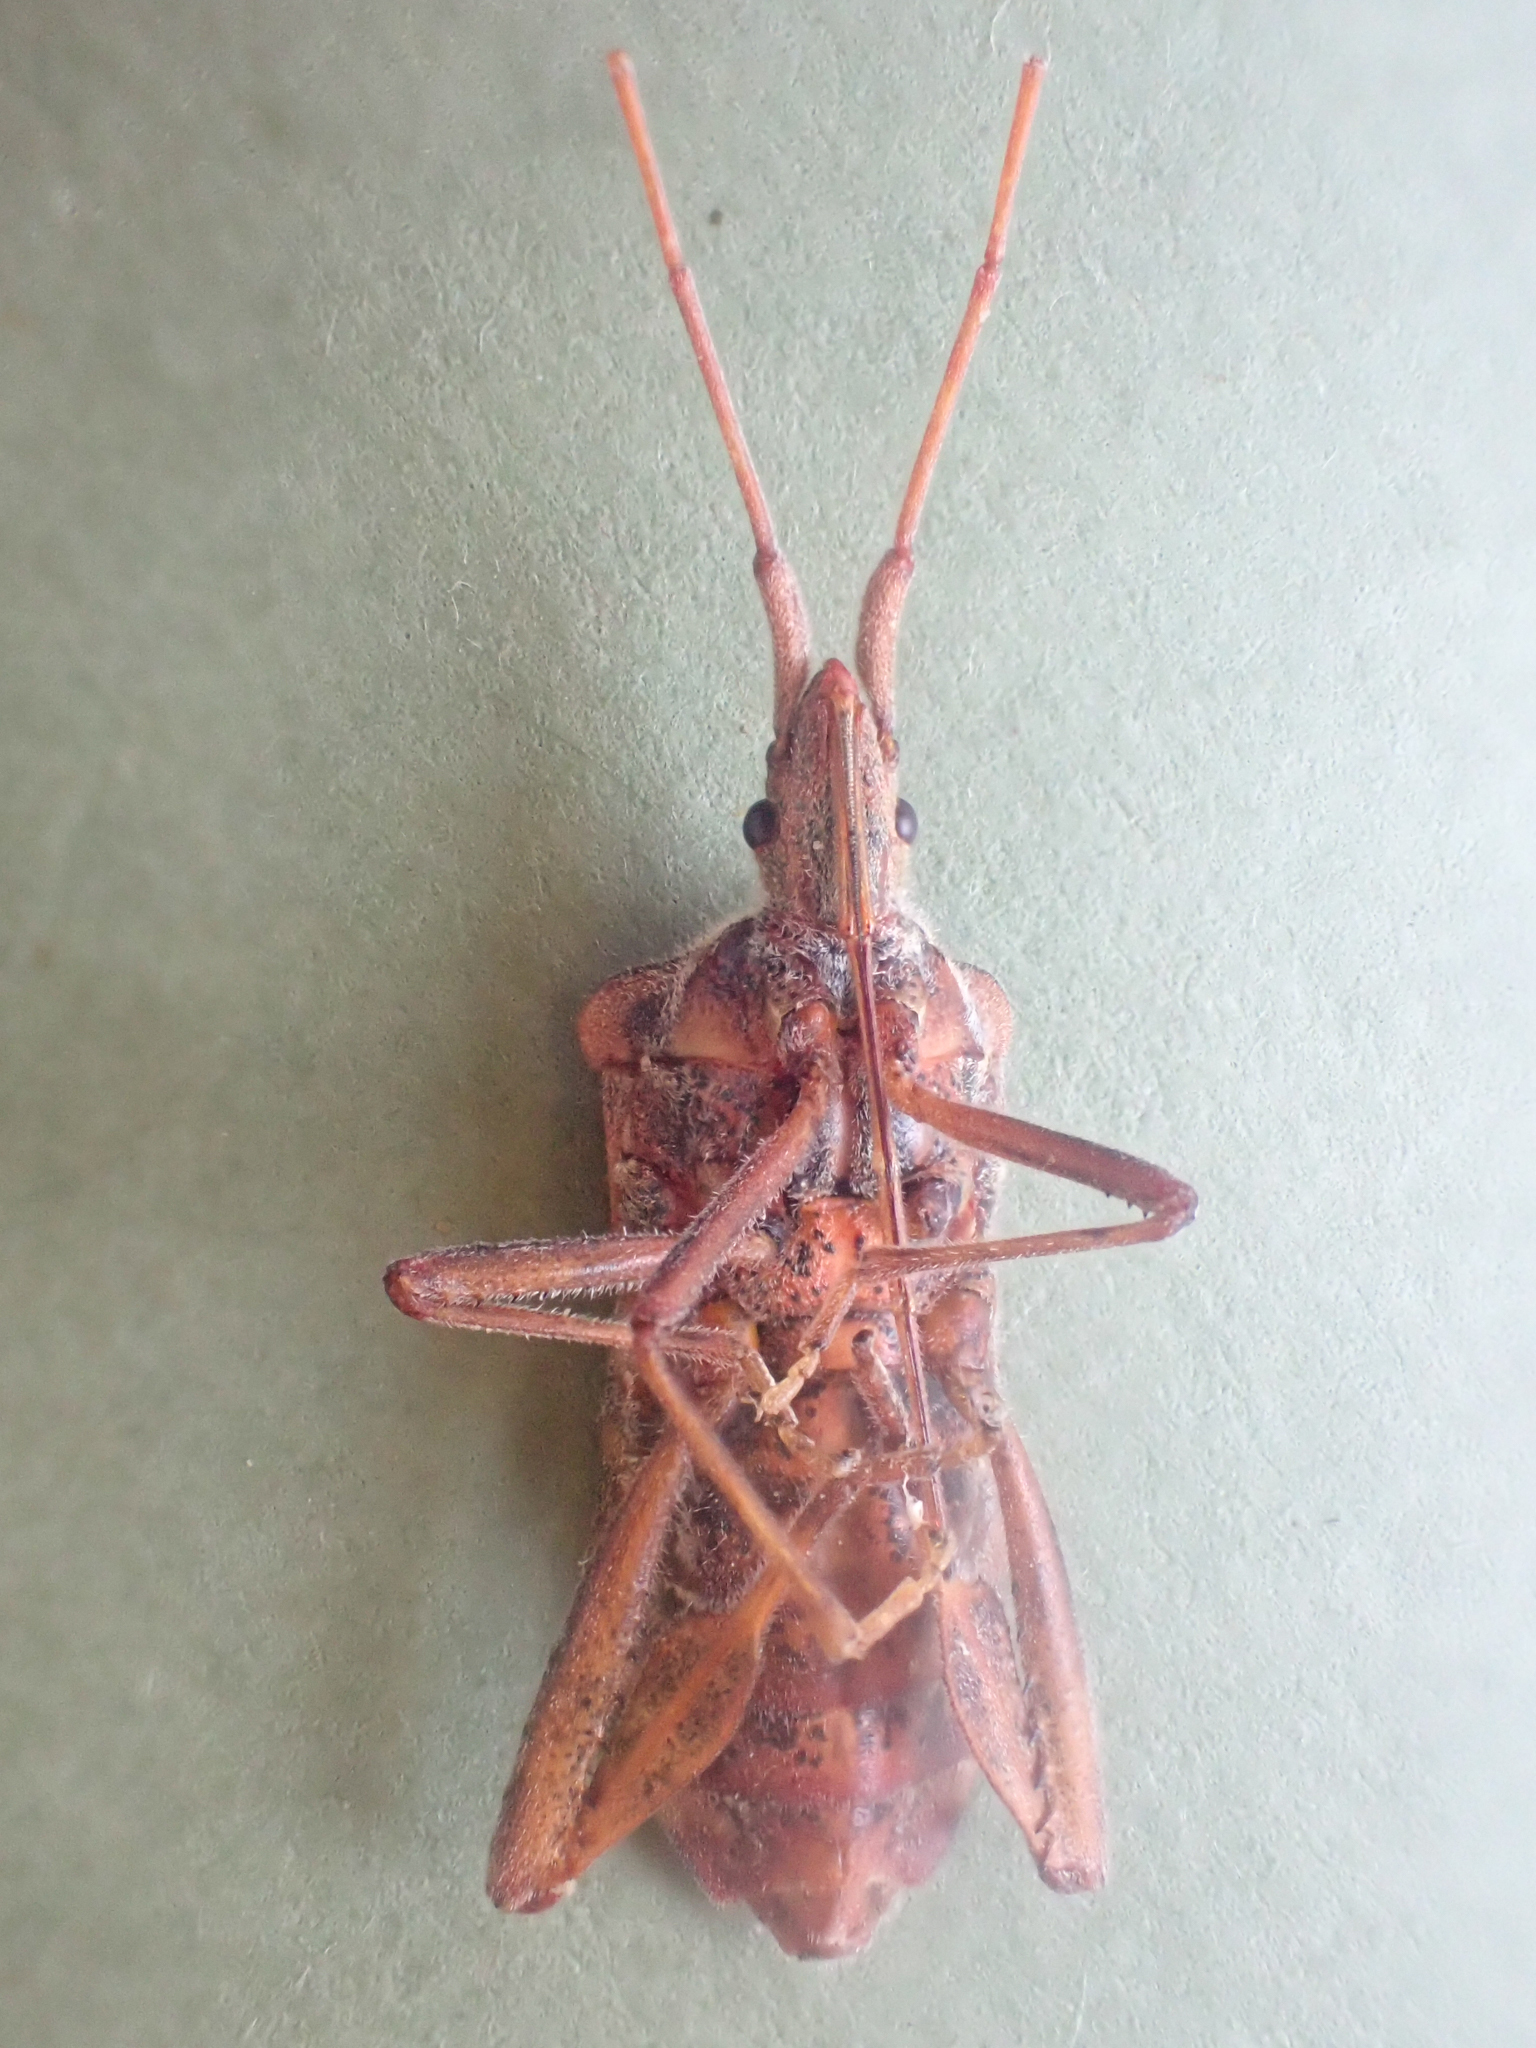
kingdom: Animalia
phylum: Arthropoda
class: Insecta
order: Hemiptera
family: Coreidae
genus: Leptoglossus
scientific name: Leptoglossus occidentalis
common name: Western conifer-seed bug
